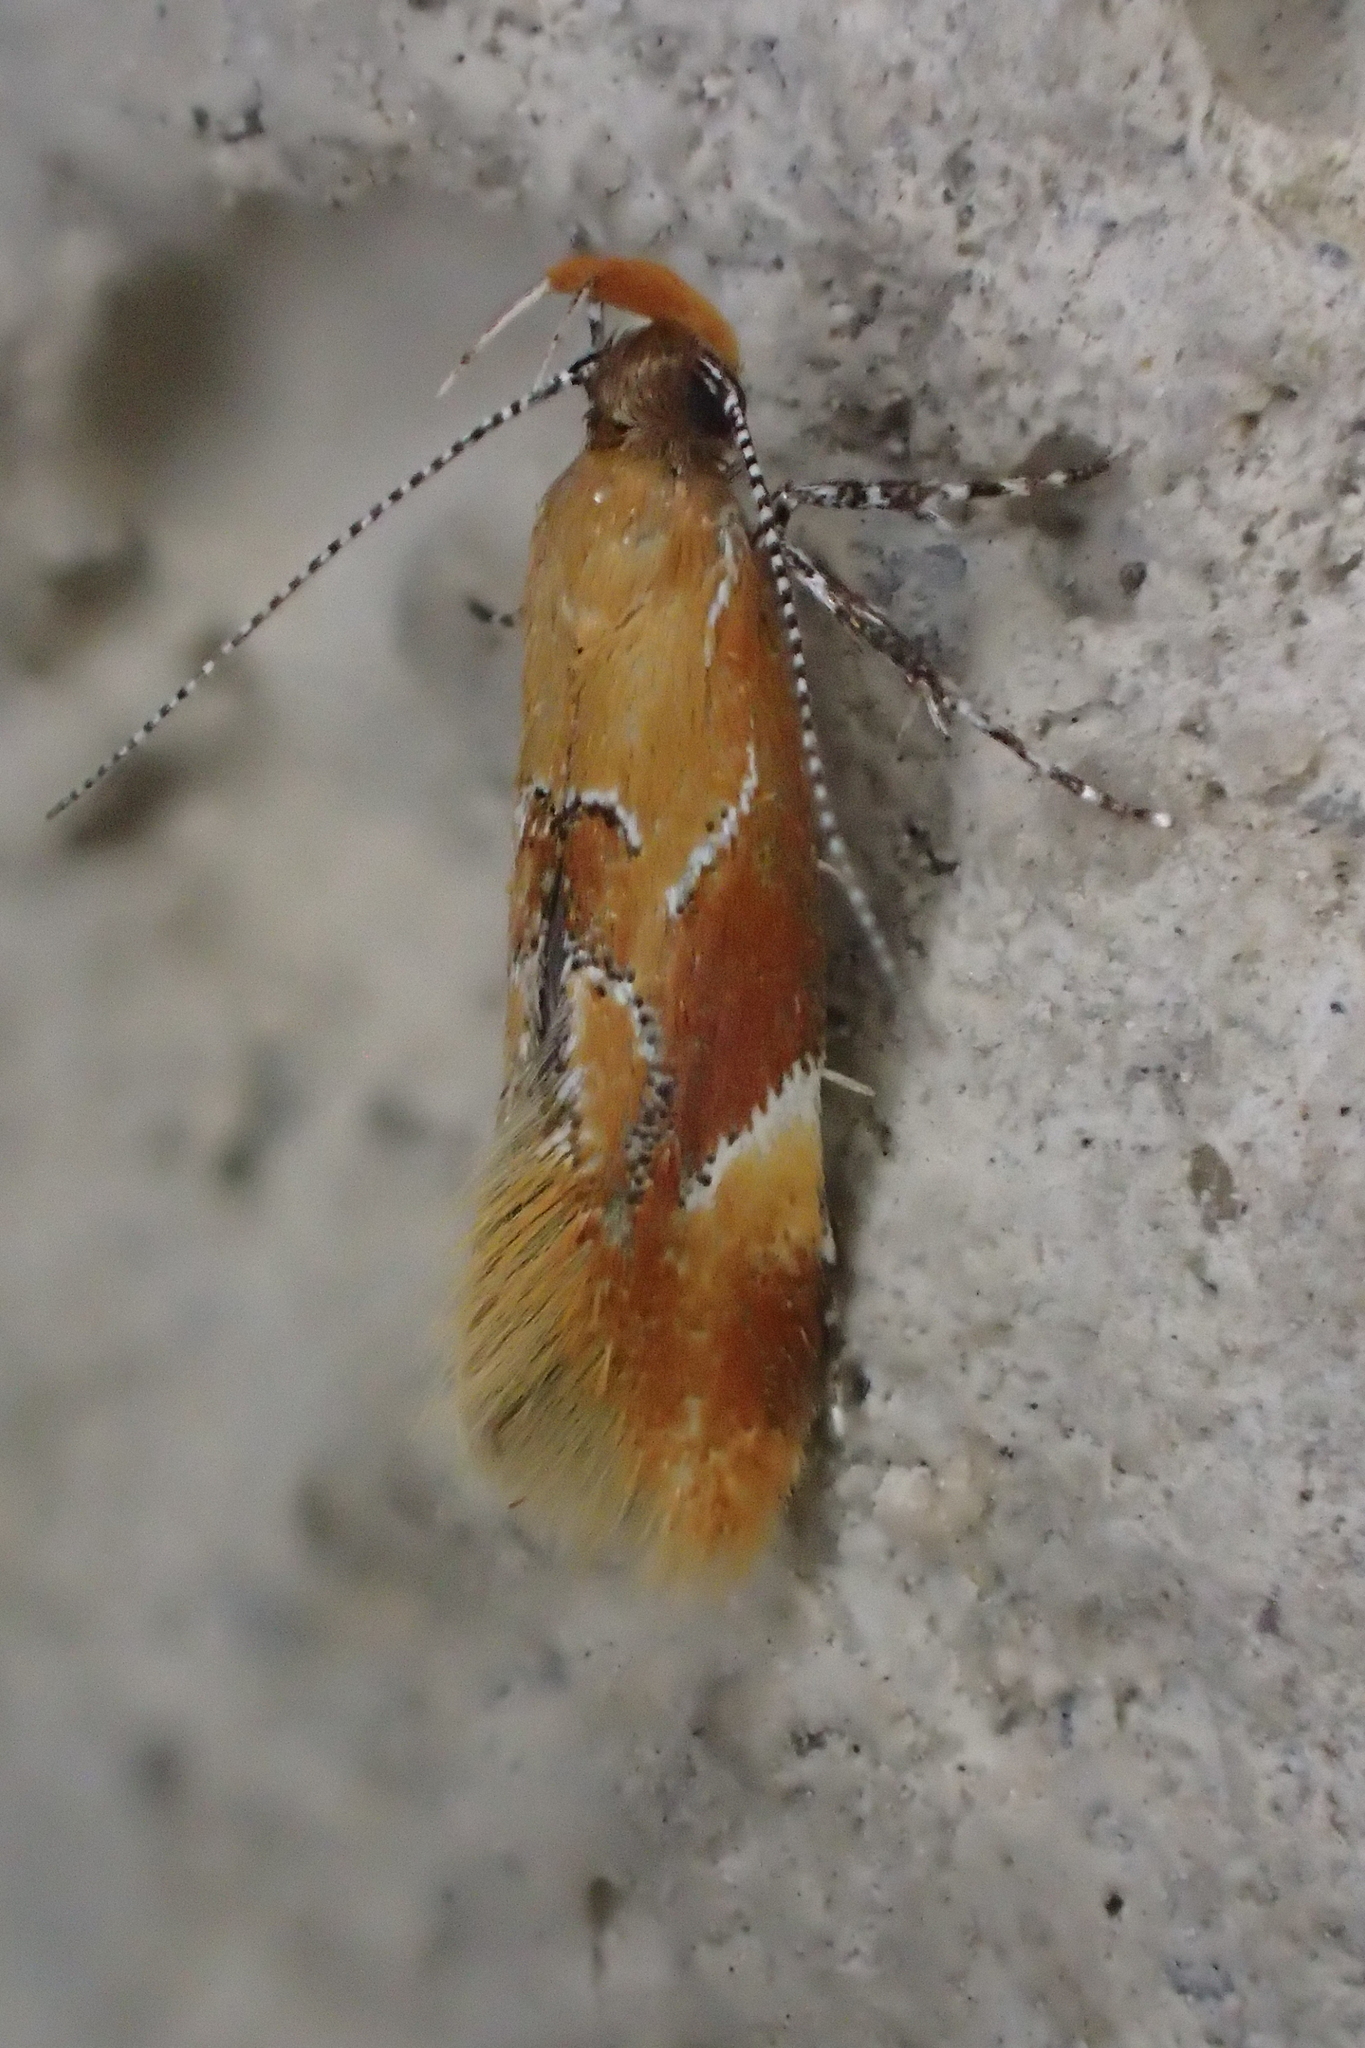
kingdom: Animalia
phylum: Arthropoda
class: Insecta
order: Lepidoptera
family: Oecophoridae
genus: Callima
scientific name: Callima formosella
